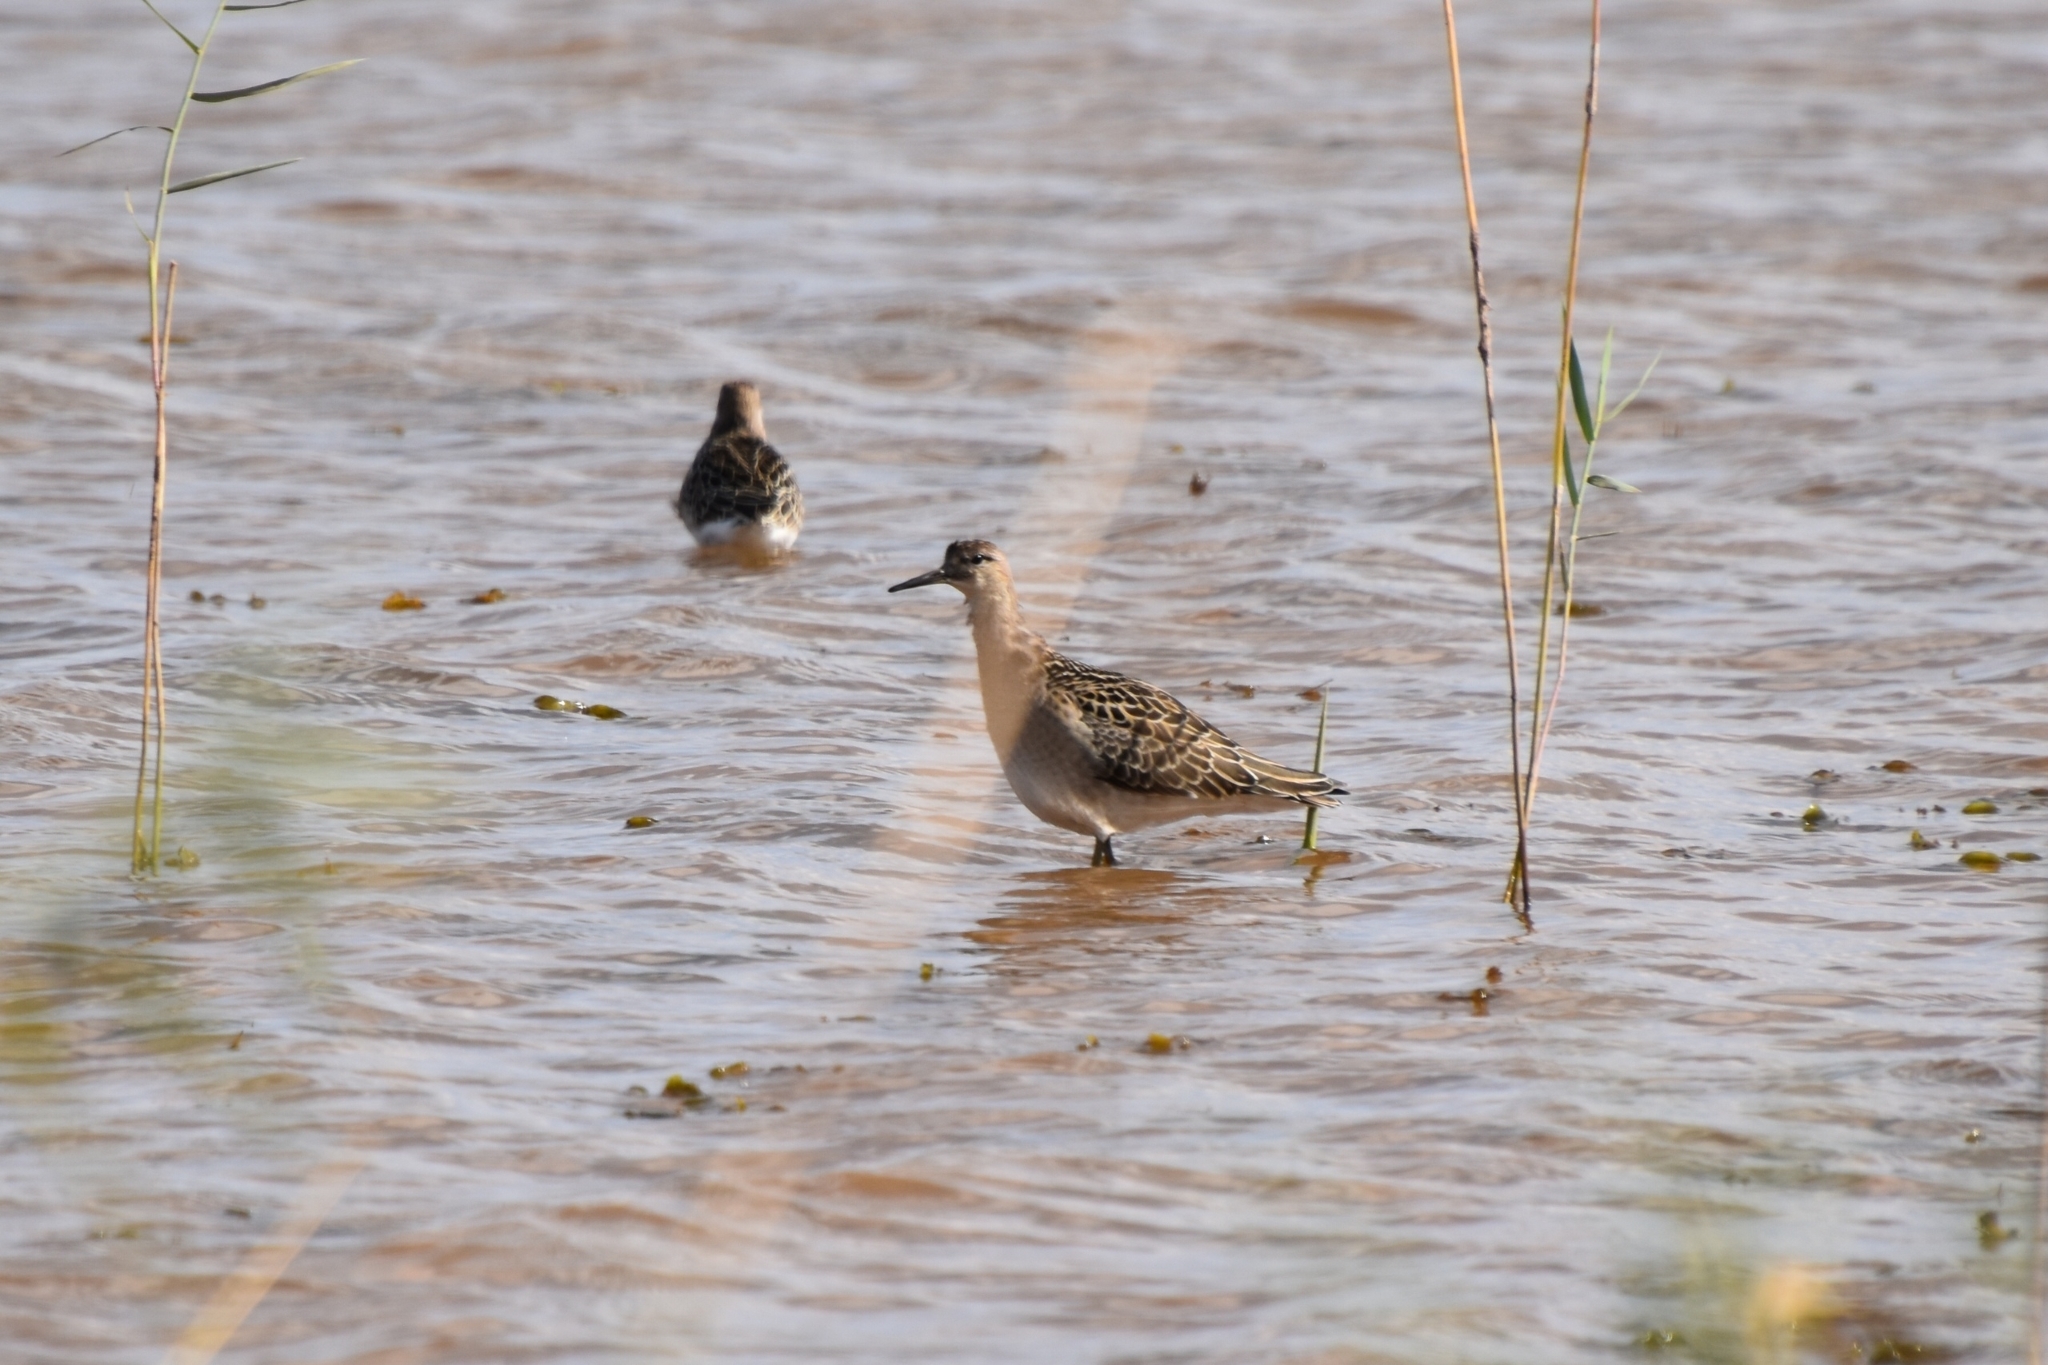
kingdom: Animalia
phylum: Chordata
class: Aves
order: Charadriiformes
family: Scolopacidae
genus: Calidris
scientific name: Calidris pugnax
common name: Ruff
